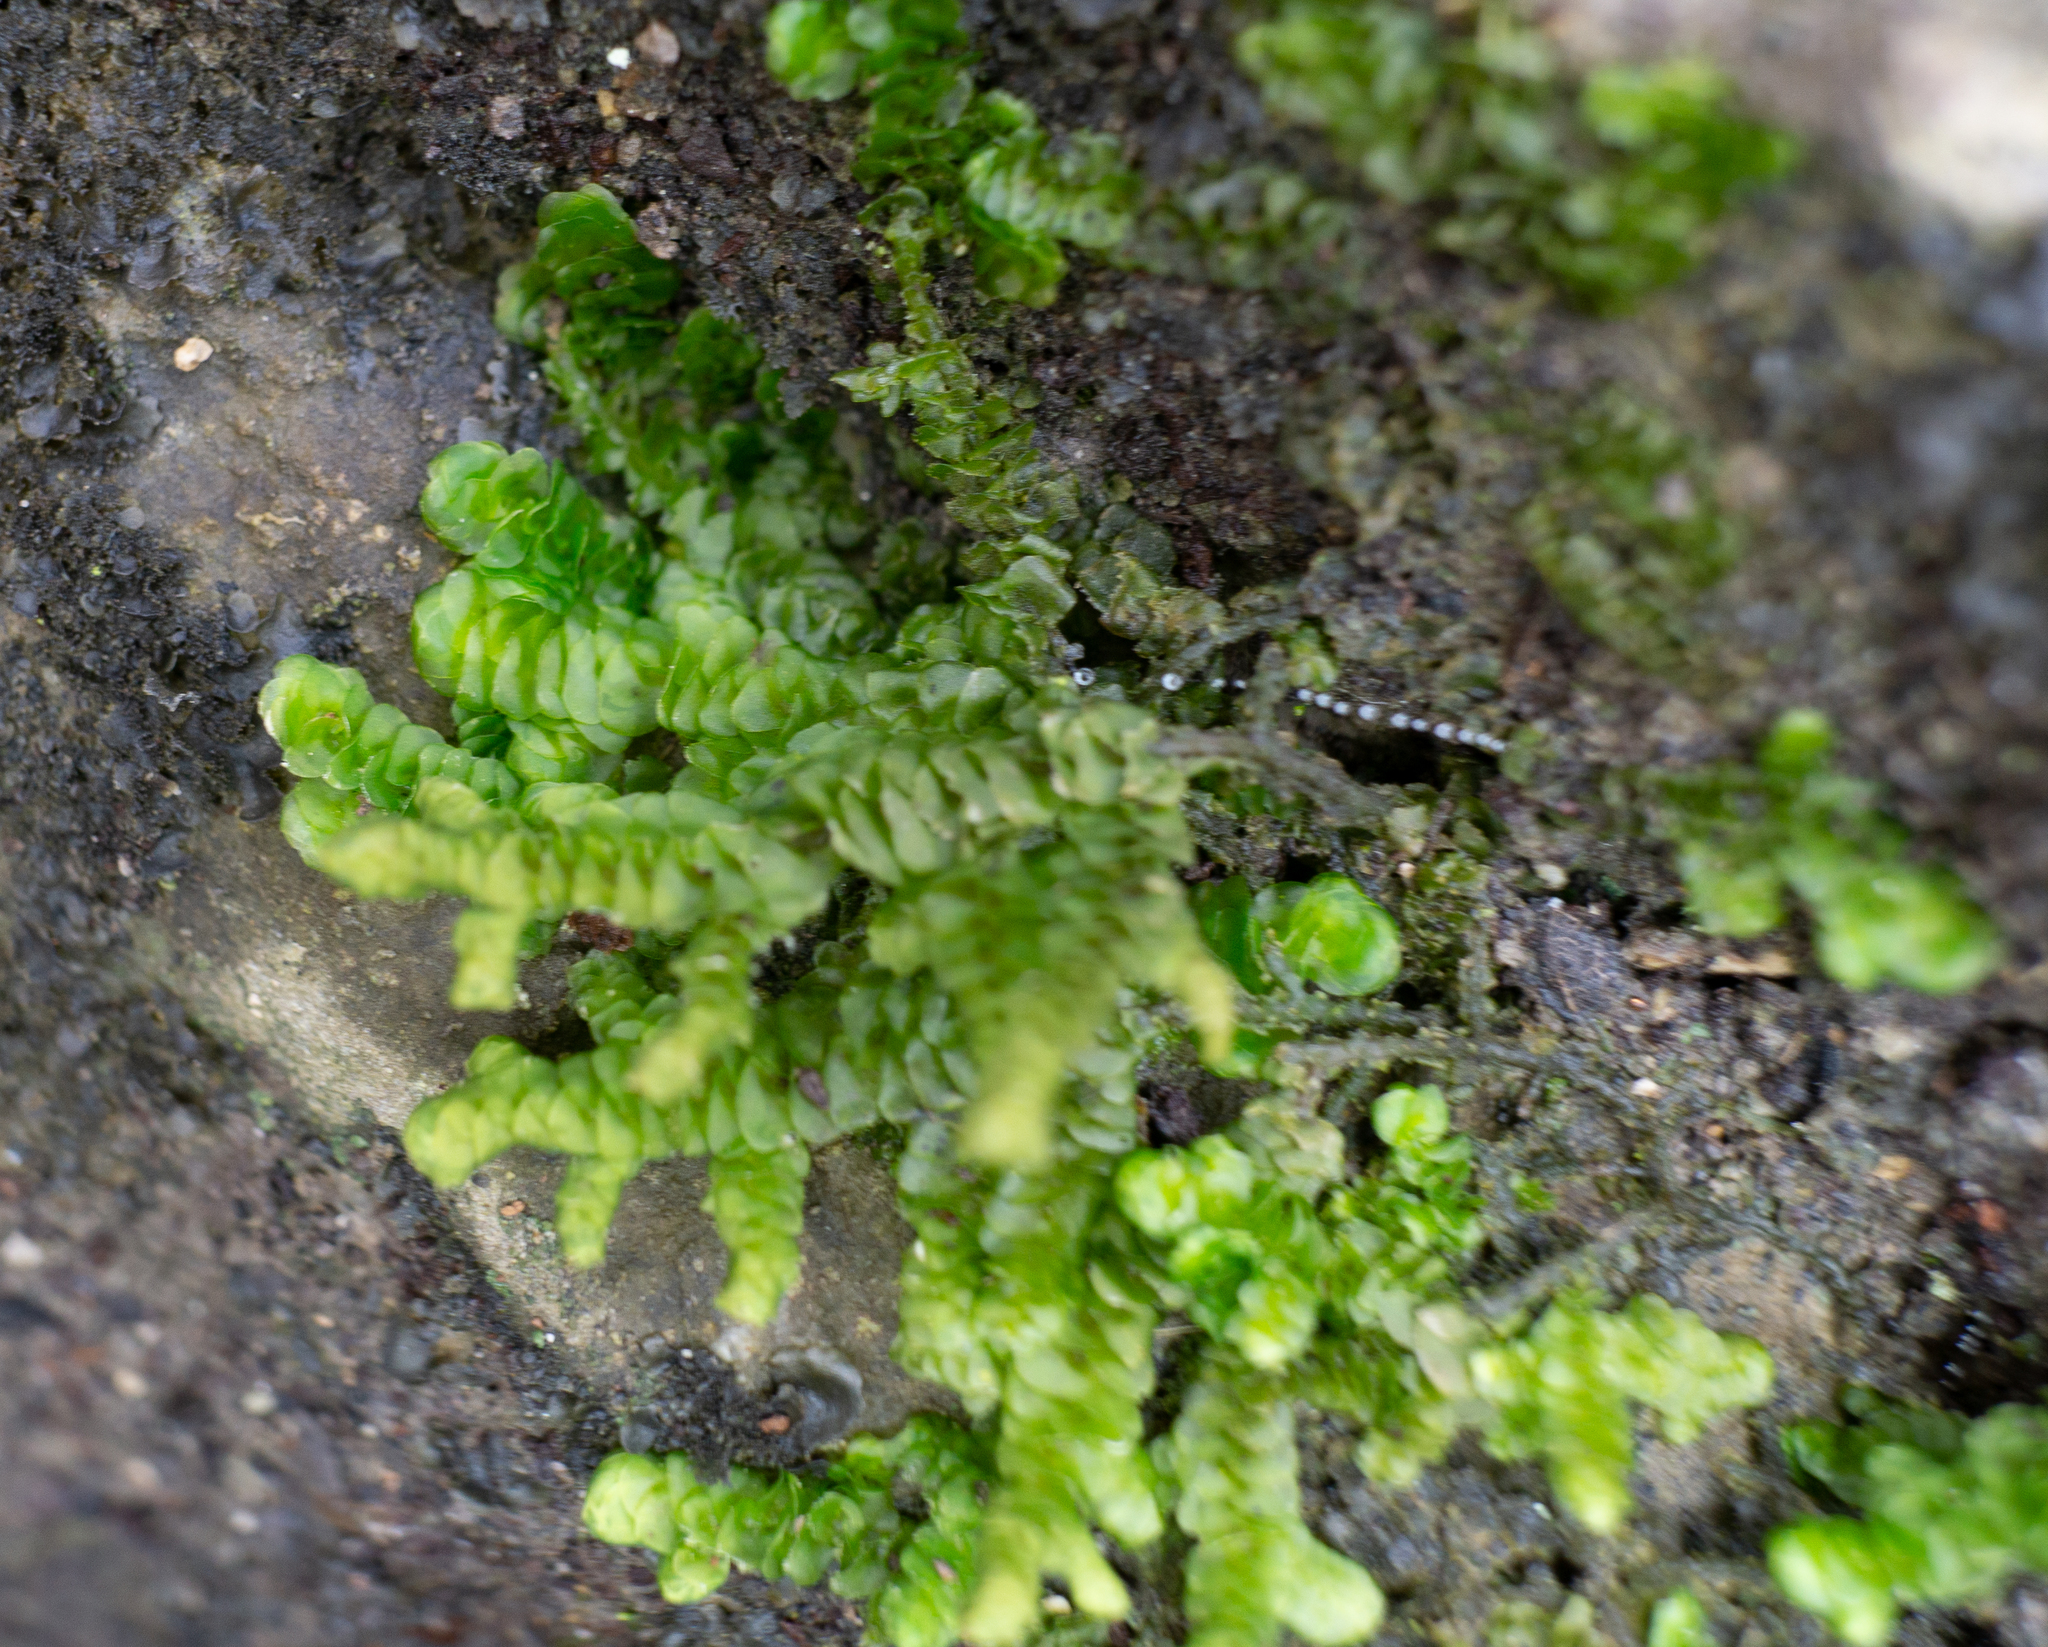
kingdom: Plantae
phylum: Marchantiophyta
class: Jungermanniopsida
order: Porellales
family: Porellaceae
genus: Porella
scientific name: Porella platyphylla
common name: Wall scalewort
